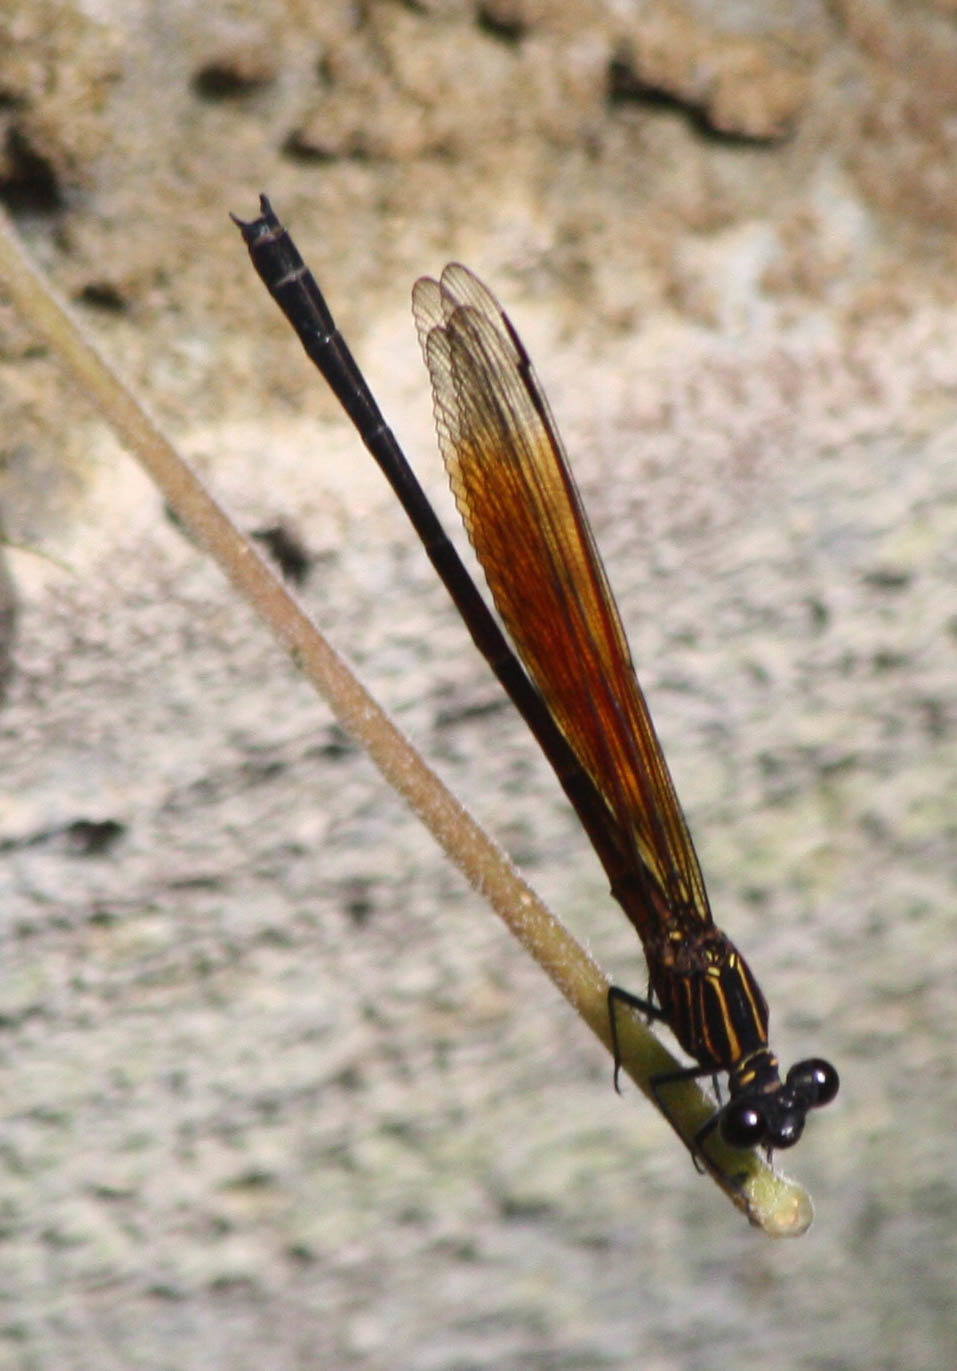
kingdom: Animalia
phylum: Arthropoda
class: Insecta
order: Odonata
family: Euphaeidae
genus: Euphaea
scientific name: Euphaea ochracea
